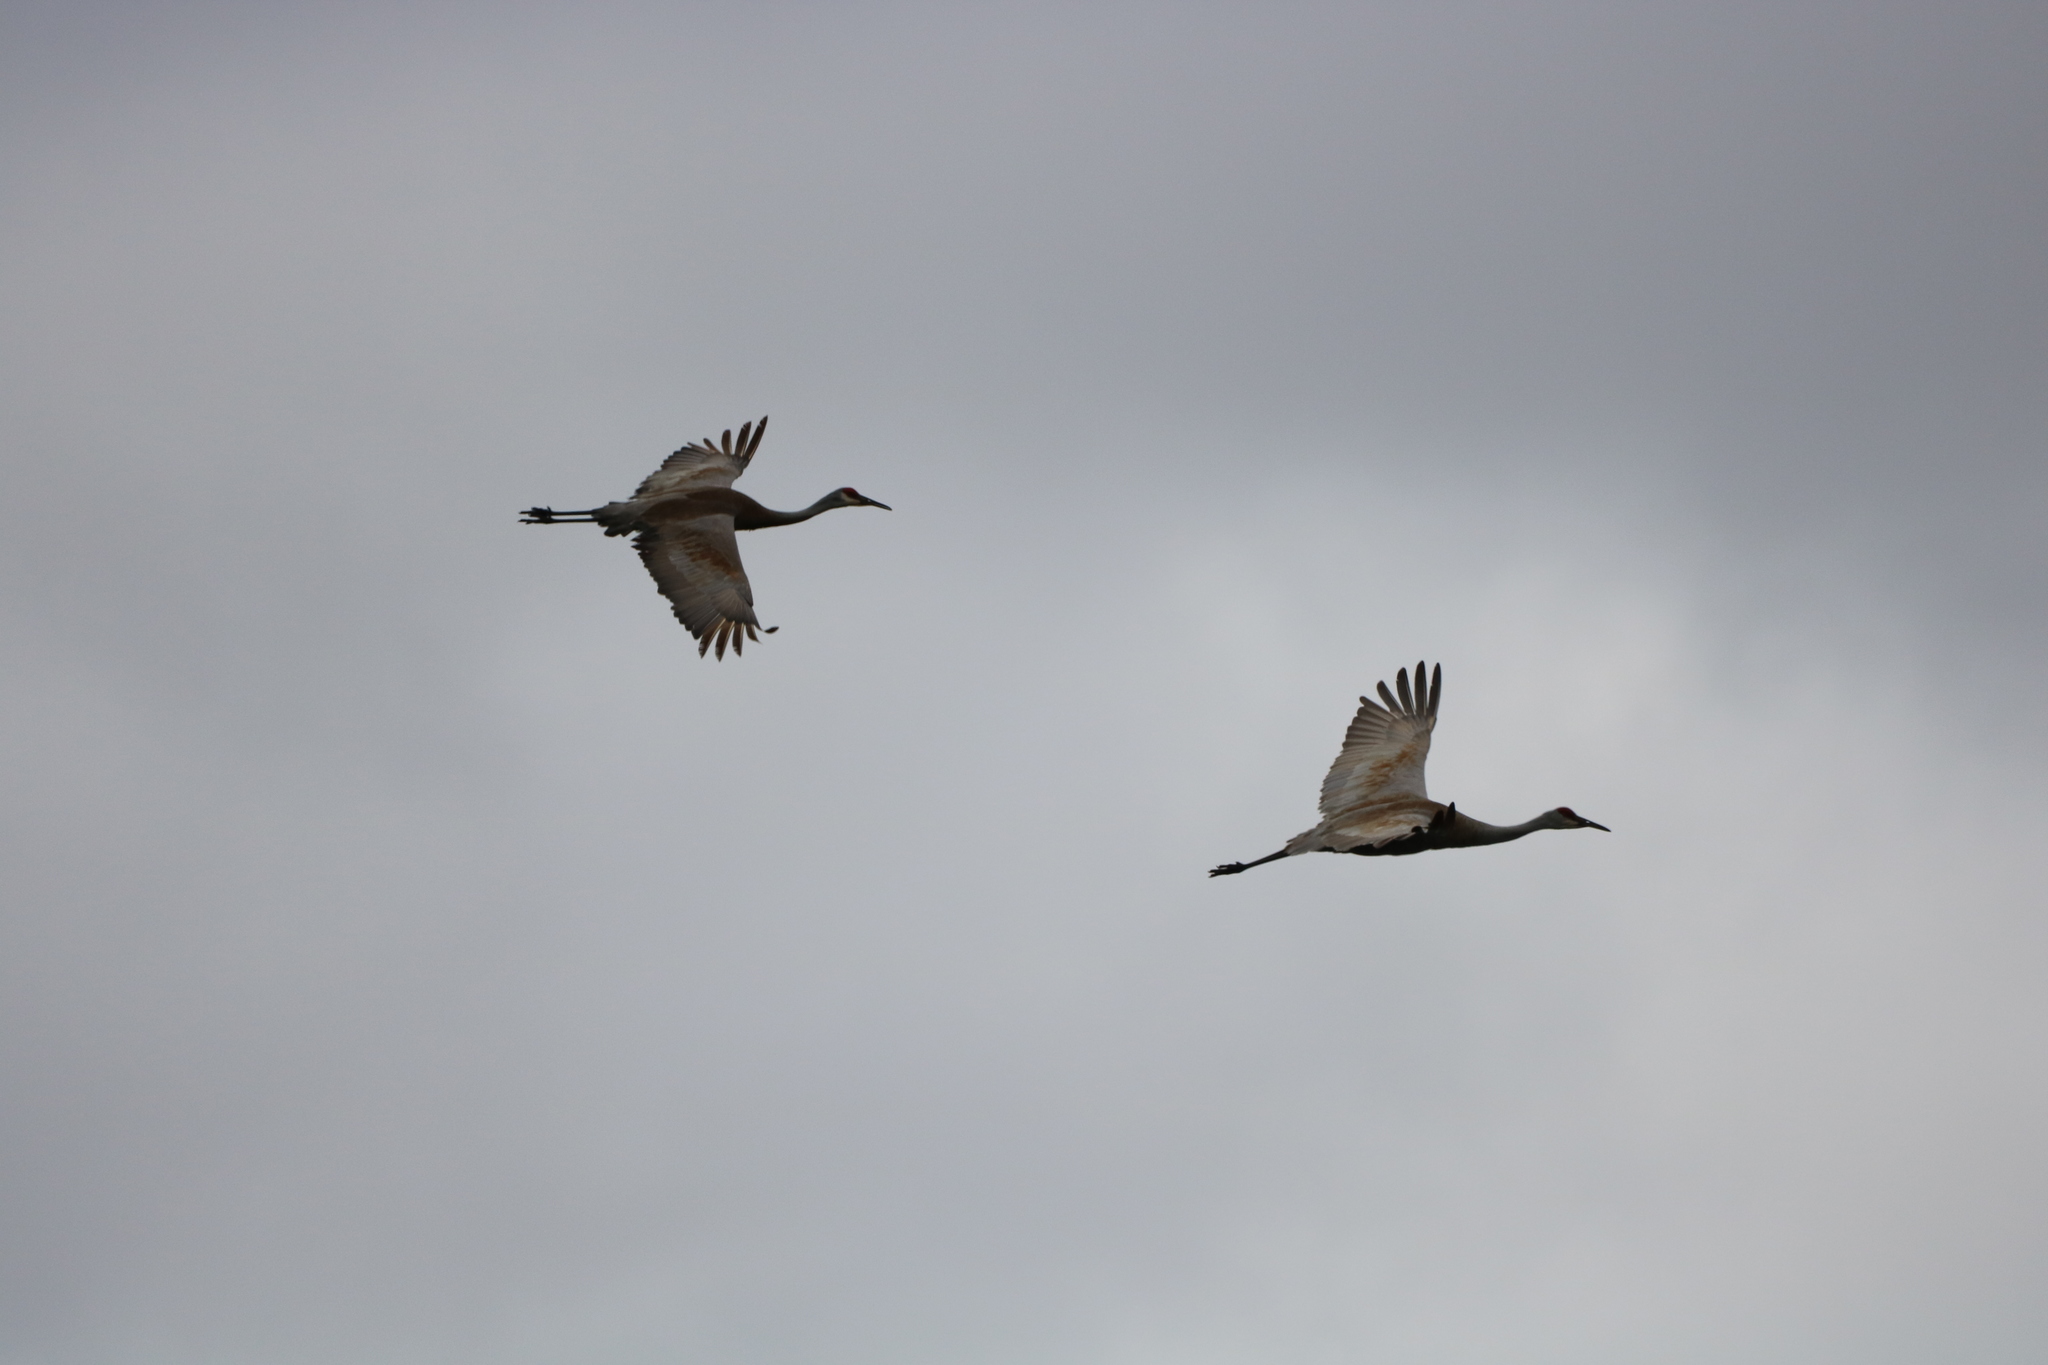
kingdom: Animalia
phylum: Chordata
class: Aves
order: Gruiformes
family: Gruidae
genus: Grus
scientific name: Grus canadensis
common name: Sandhill crane
